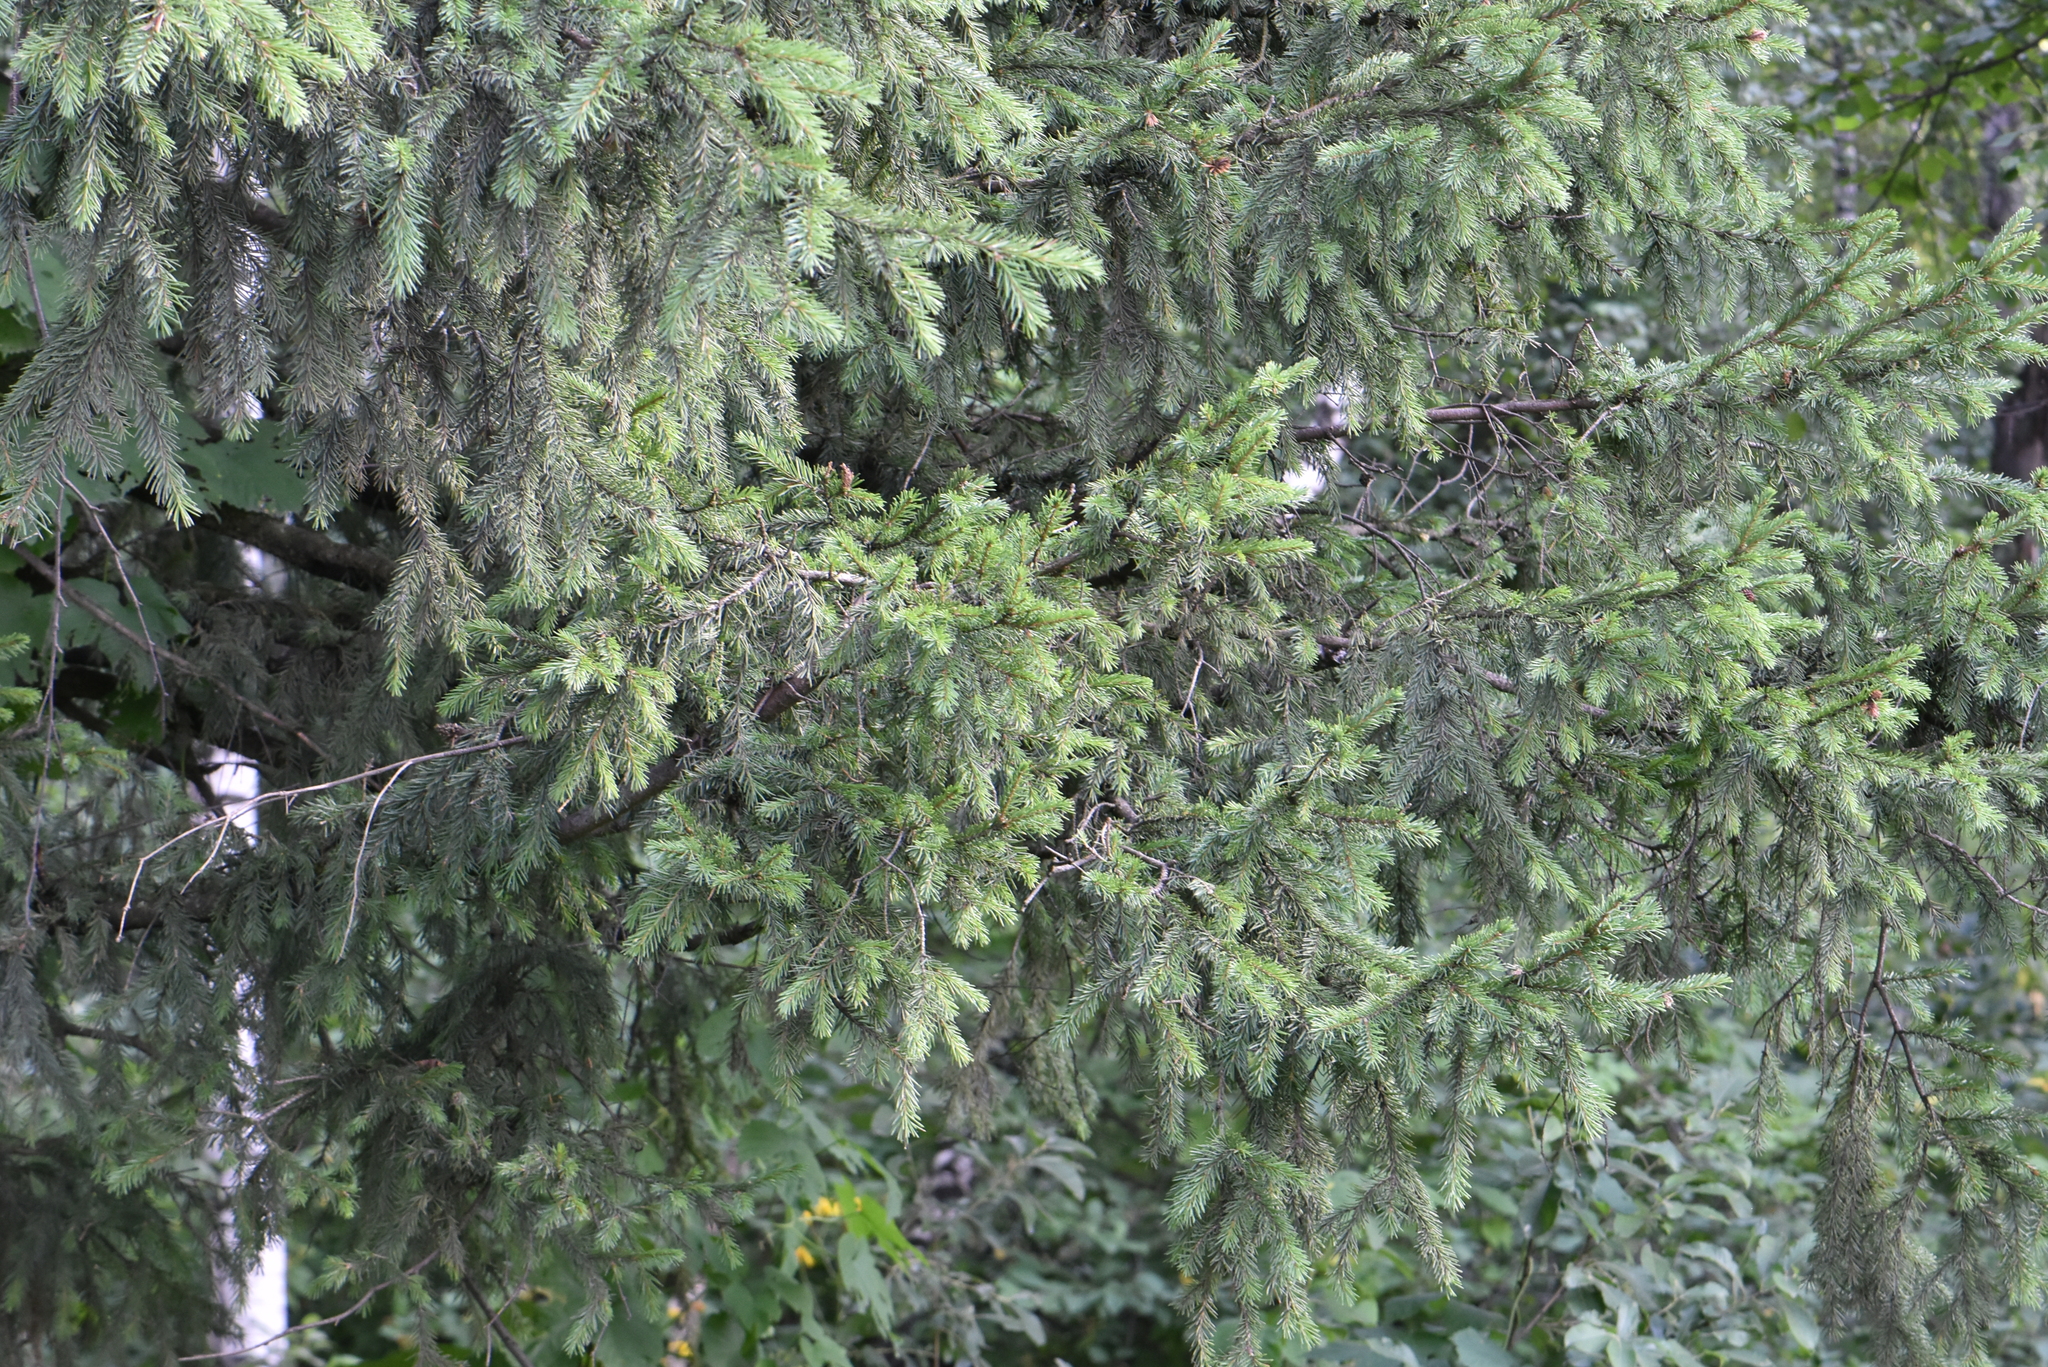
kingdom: Plantae
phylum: Tracheophyta
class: Pinopsida
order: Pinales
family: Pinaceae
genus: Picea
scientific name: Picea obovata
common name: Siberian spruce
